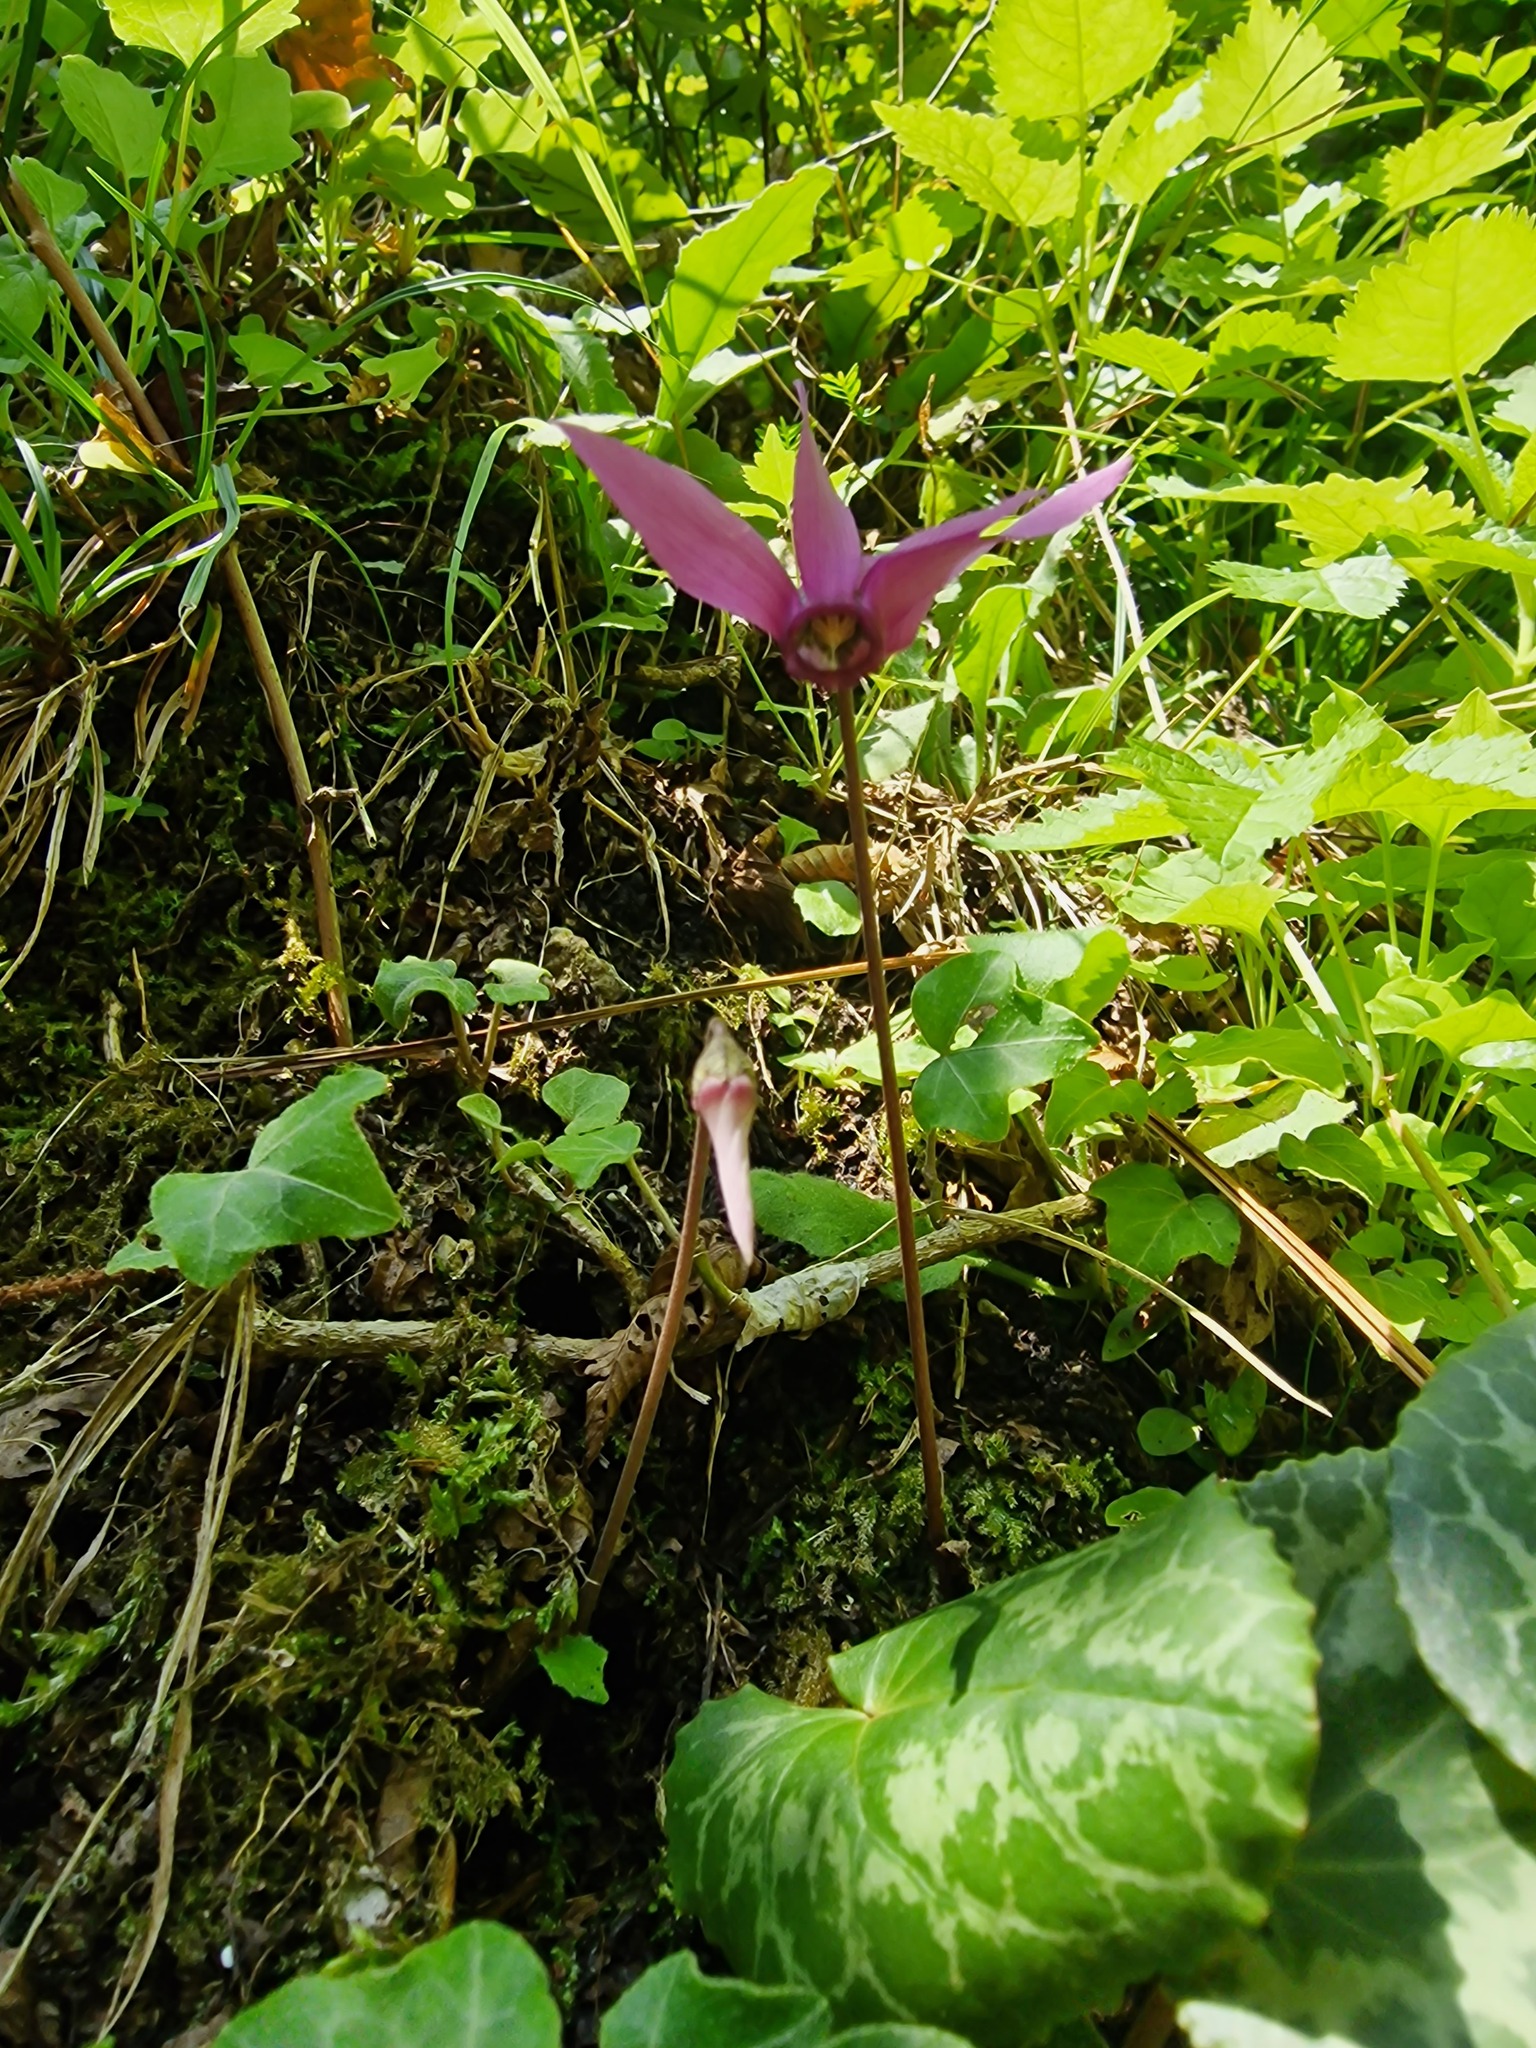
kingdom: Plantae
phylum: Tracheophyta
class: Magnoliopsida
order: Ericales
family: Primulaceae
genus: Cyclamen
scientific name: Cyclamen purpurascens
